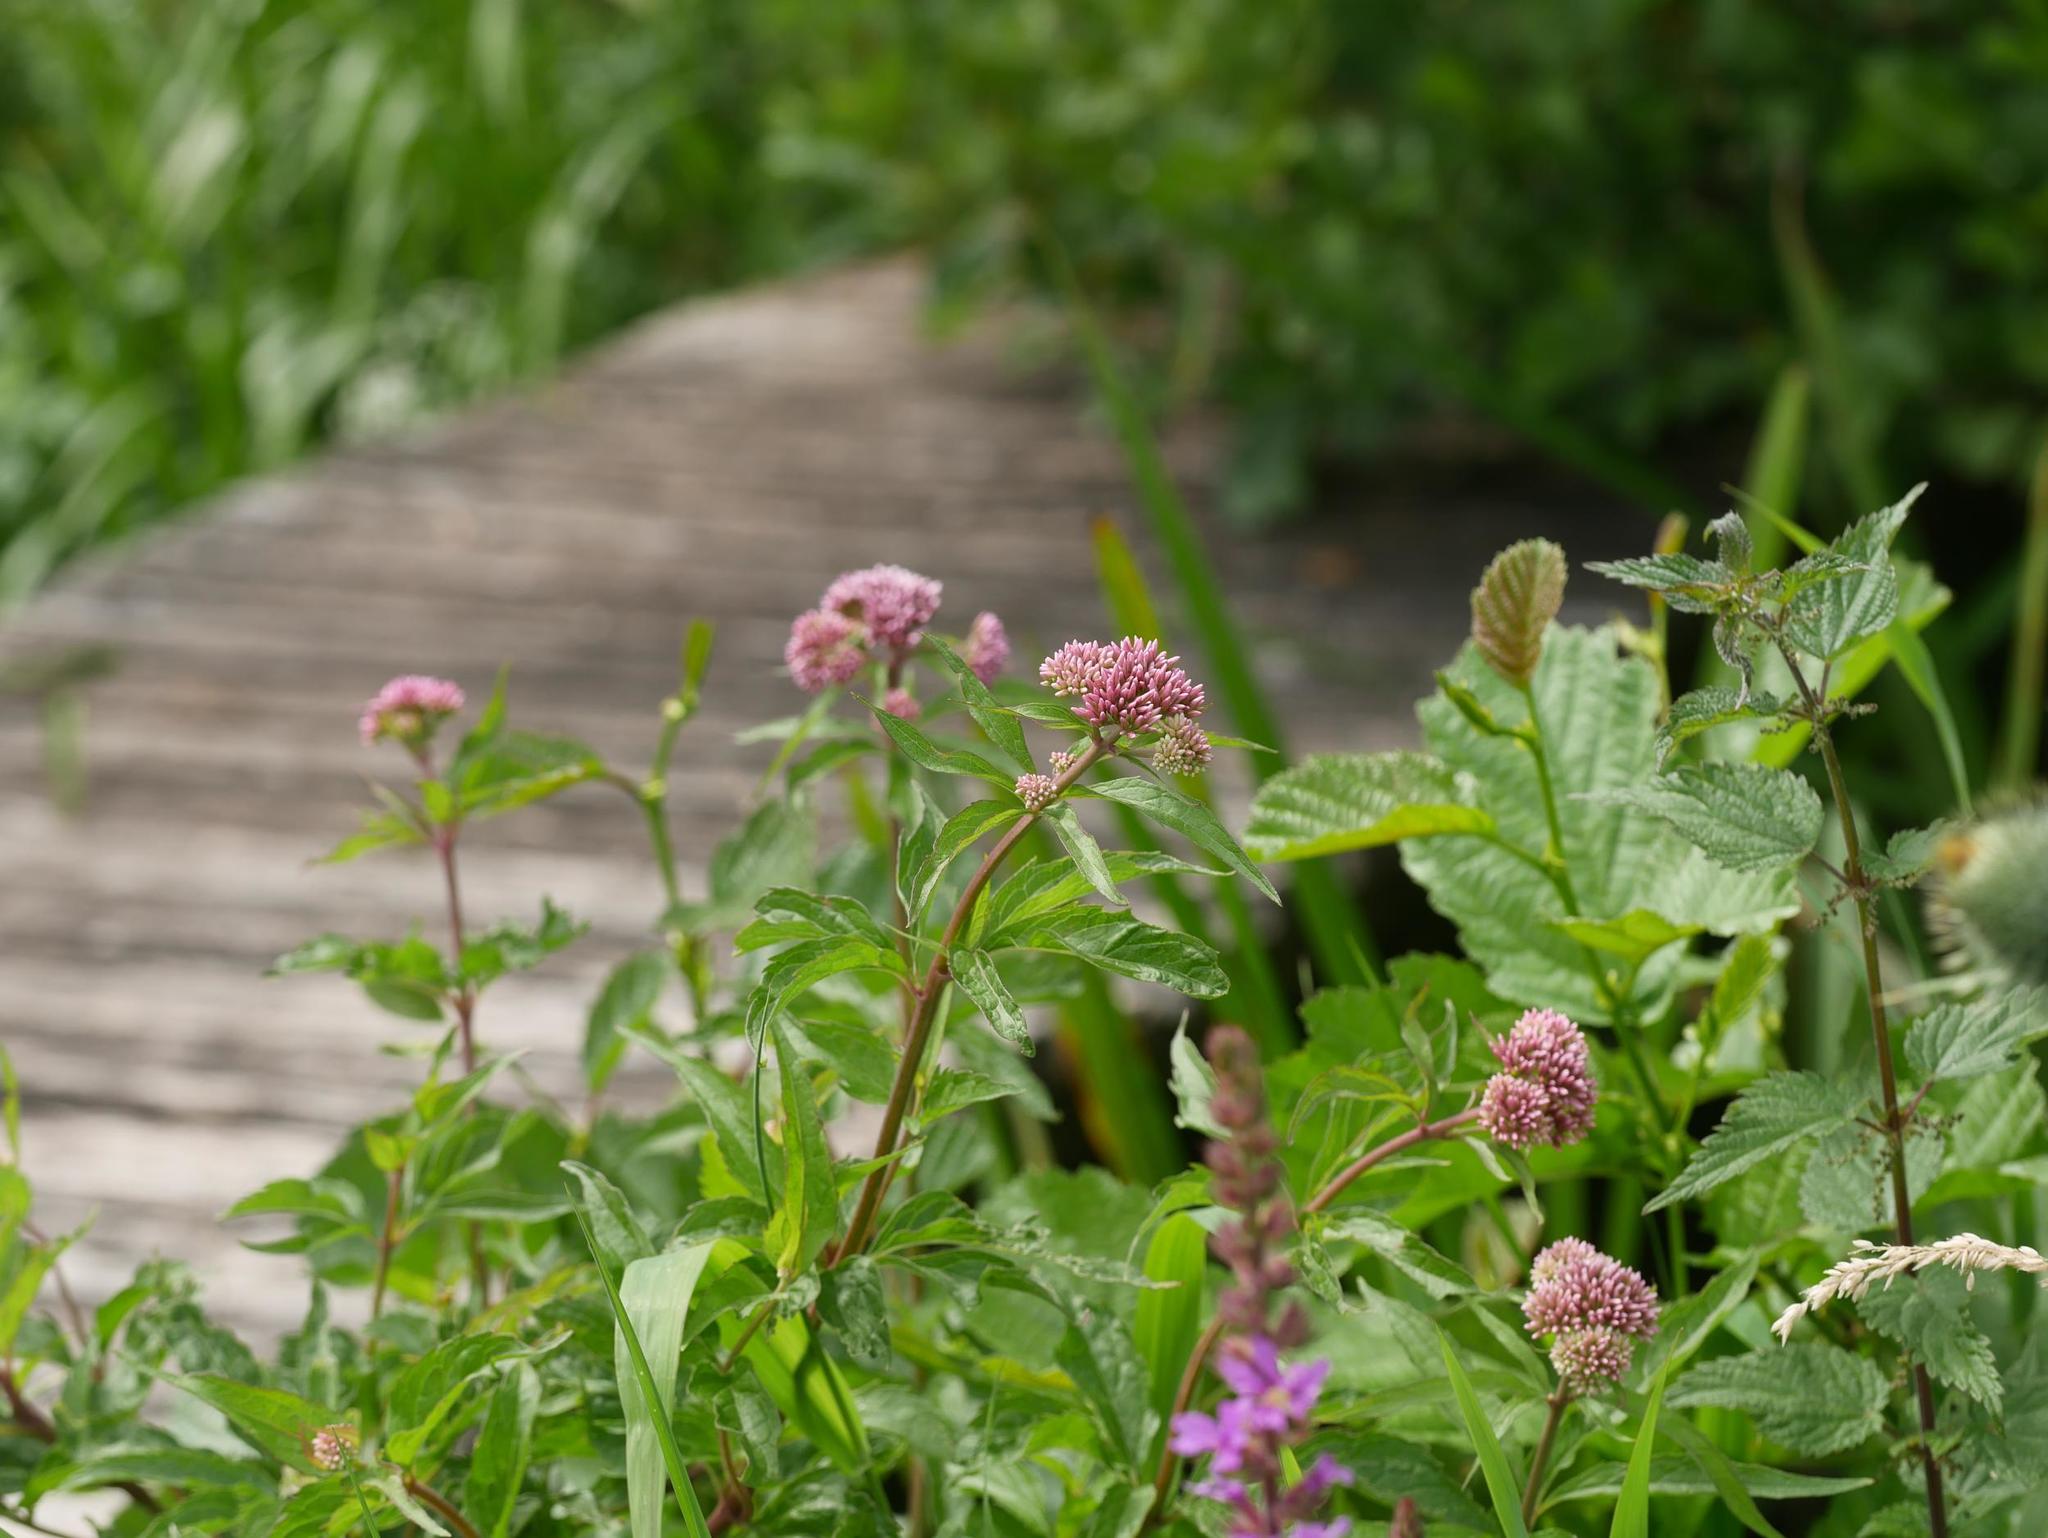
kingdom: Plantae
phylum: Tracheophyta
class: Magnoliopsida
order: Asterales
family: Asteraceae
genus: Eupatorium
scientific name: Eupatorium cannabinum
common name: Hemp-agrimony
